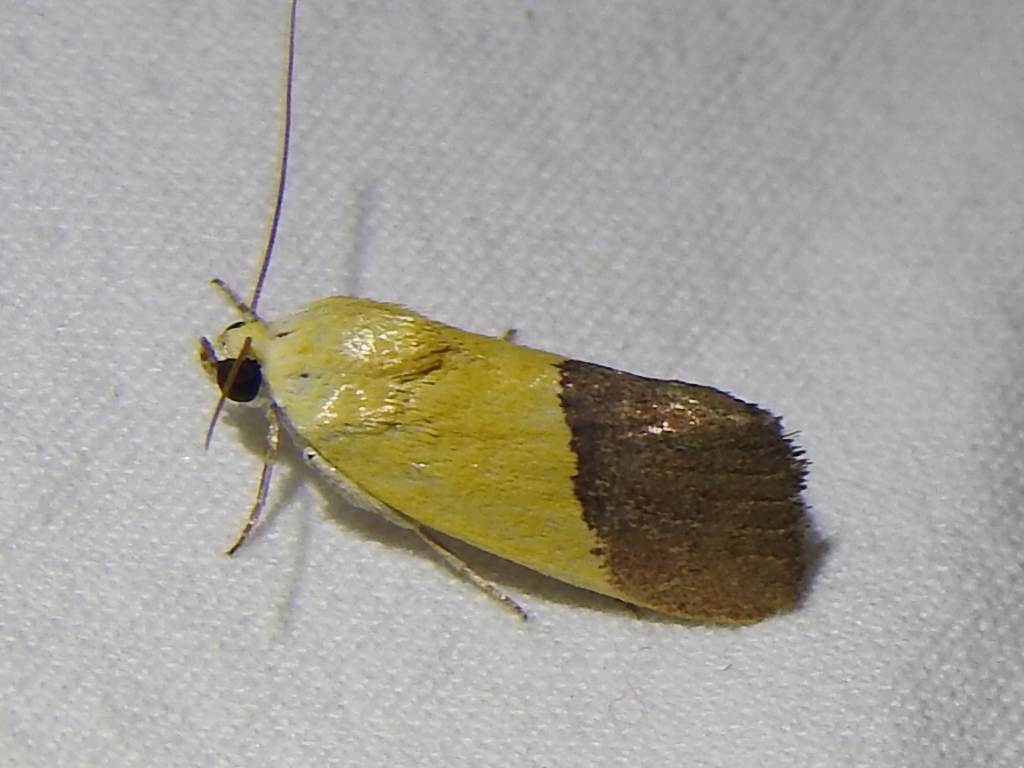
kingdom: Animalia
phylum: Arthropoda
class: Insecta
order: Lepidoptera
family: Noctuidae
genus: Acontia
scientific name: Acontia semiflava
